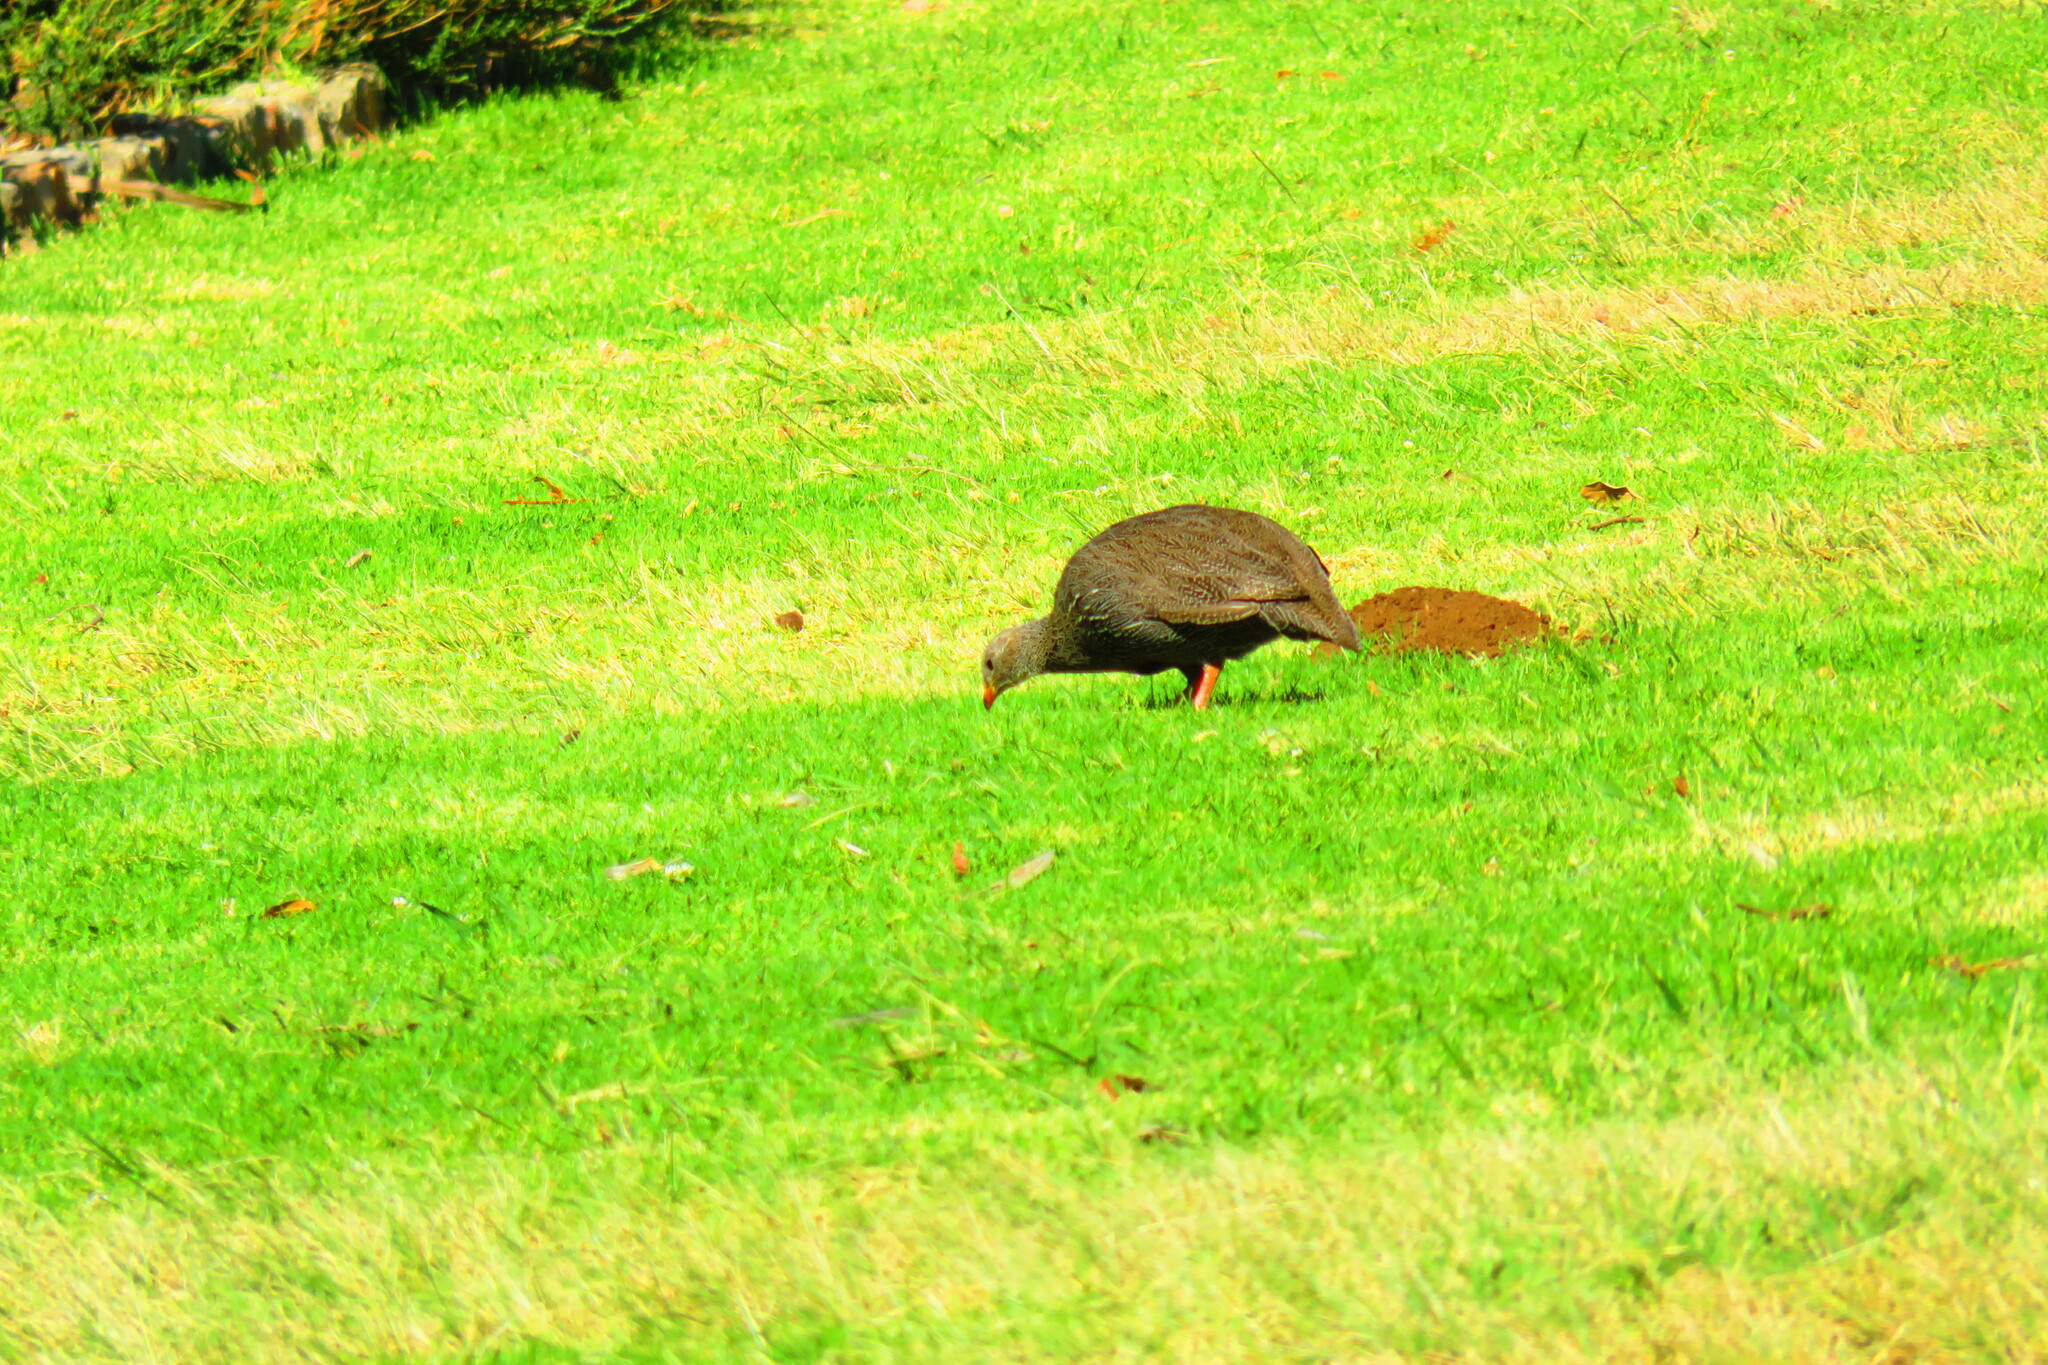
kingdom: Animalia
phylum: Chordata
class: Aves
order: Galliformes
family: Phasianidae
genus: Pternistis
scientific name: Pternistis capensis
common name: Cape spurfowl
